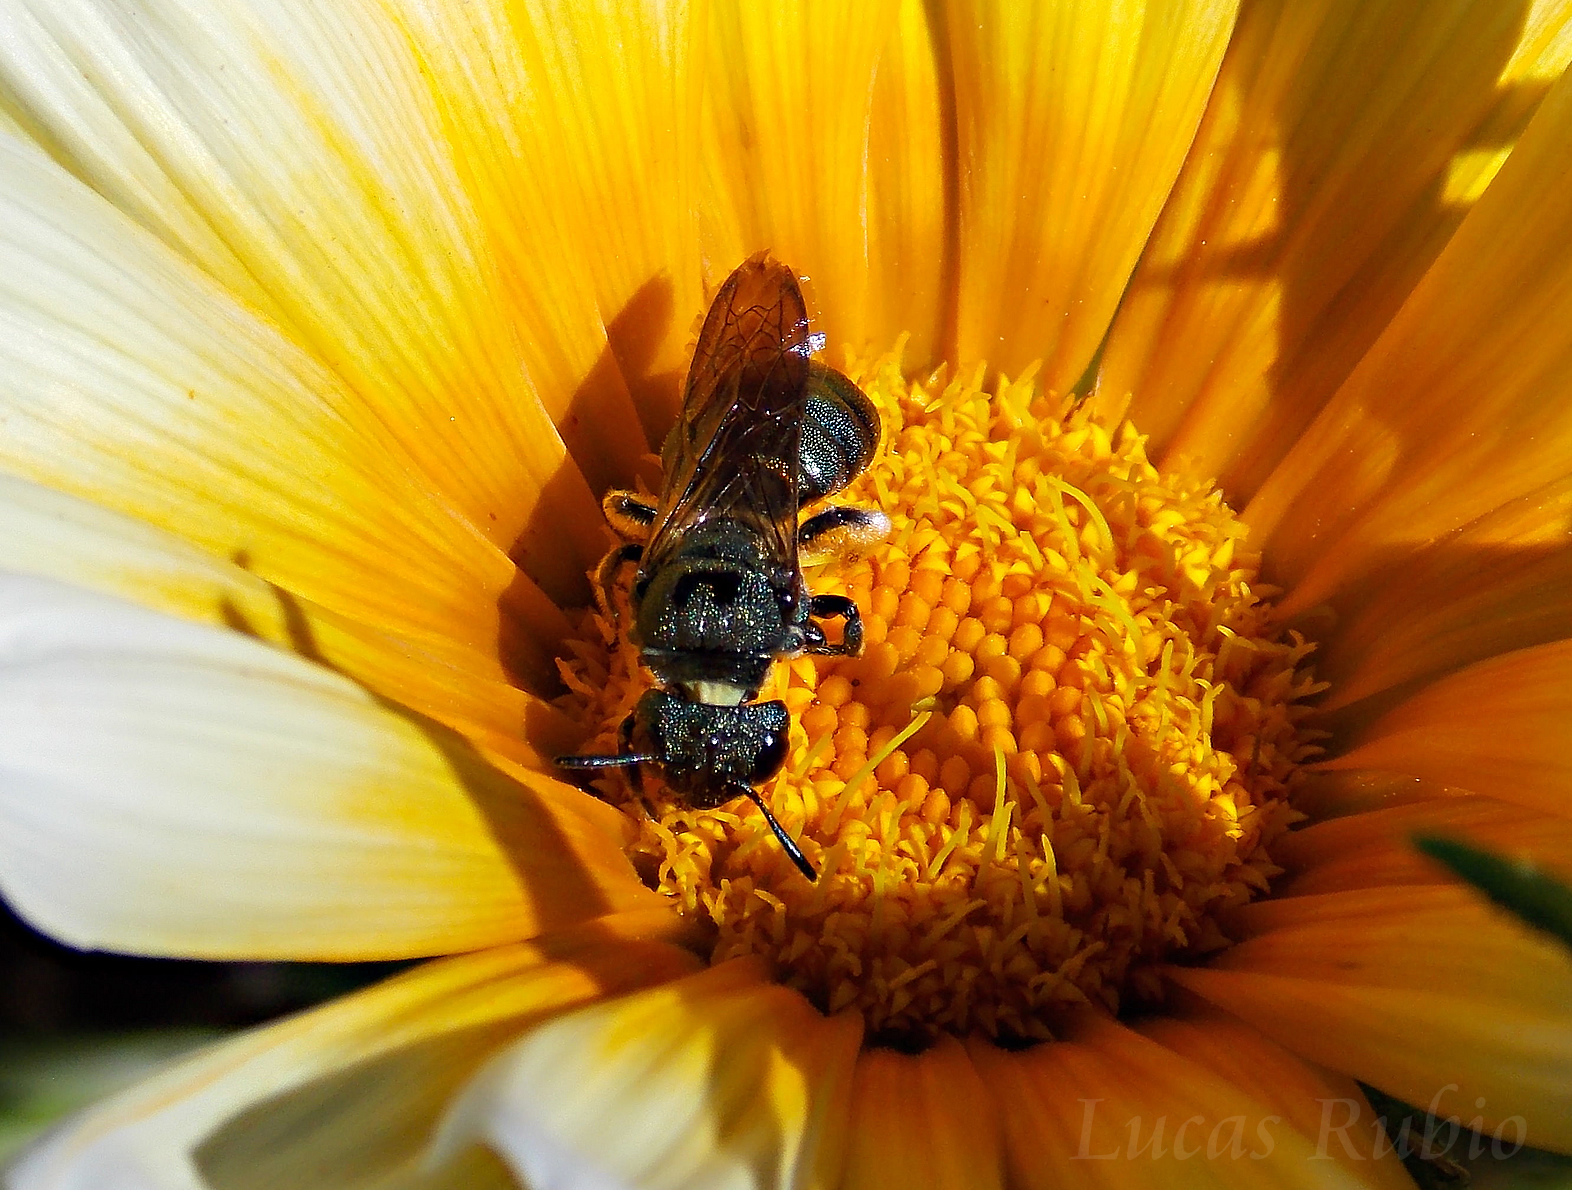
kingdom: Animalia
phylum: Arthropoda
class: Insecta
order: Hymenoptera
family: Apidae
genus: Ceratina
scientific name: Ceratina
